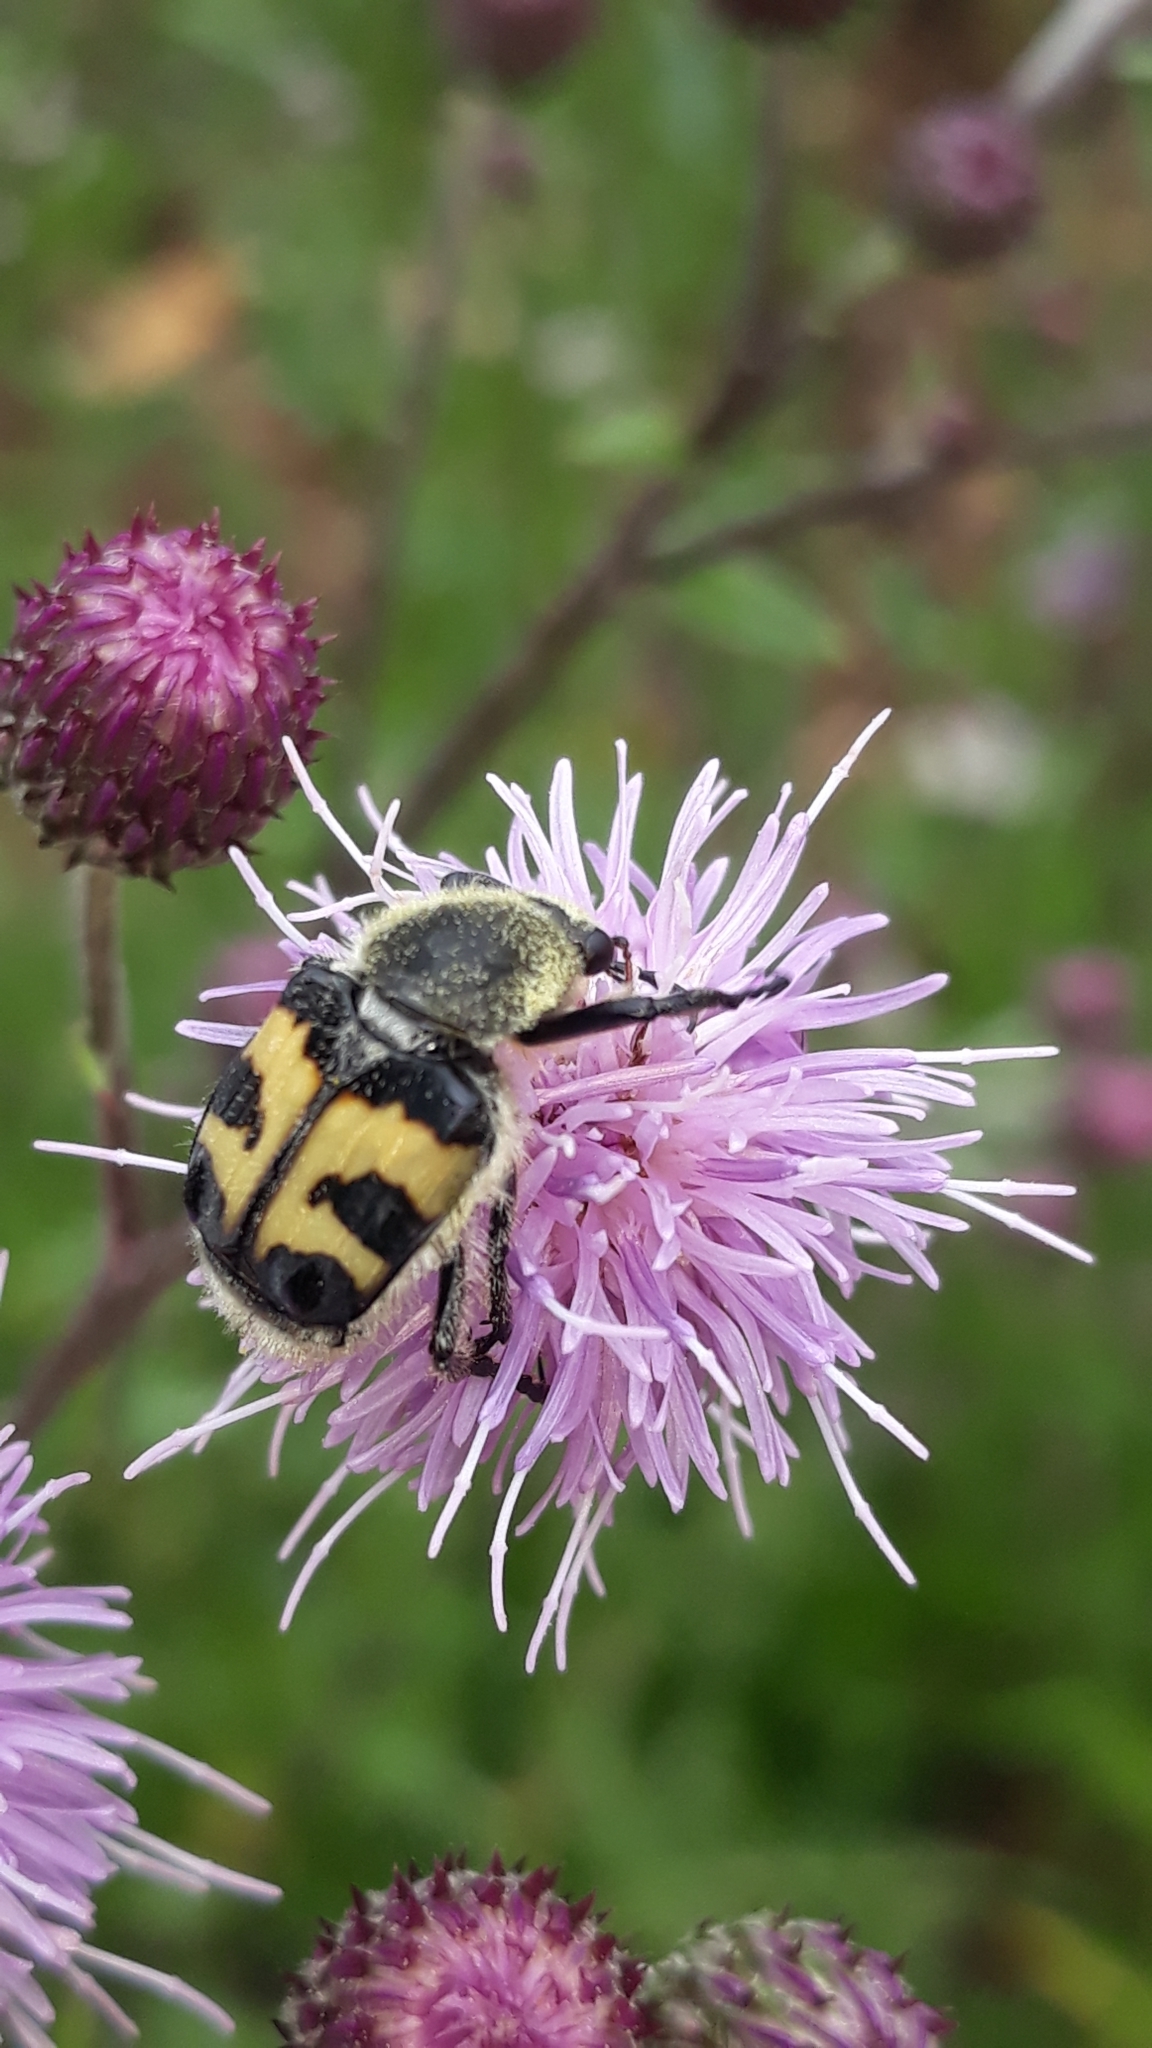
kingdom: Animalia
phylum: Arthropoda
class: Insecta
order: Coleoptera
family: Scarabaeidae
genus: Trichius
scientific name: Trichius fasciatus
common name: Bee beetle
